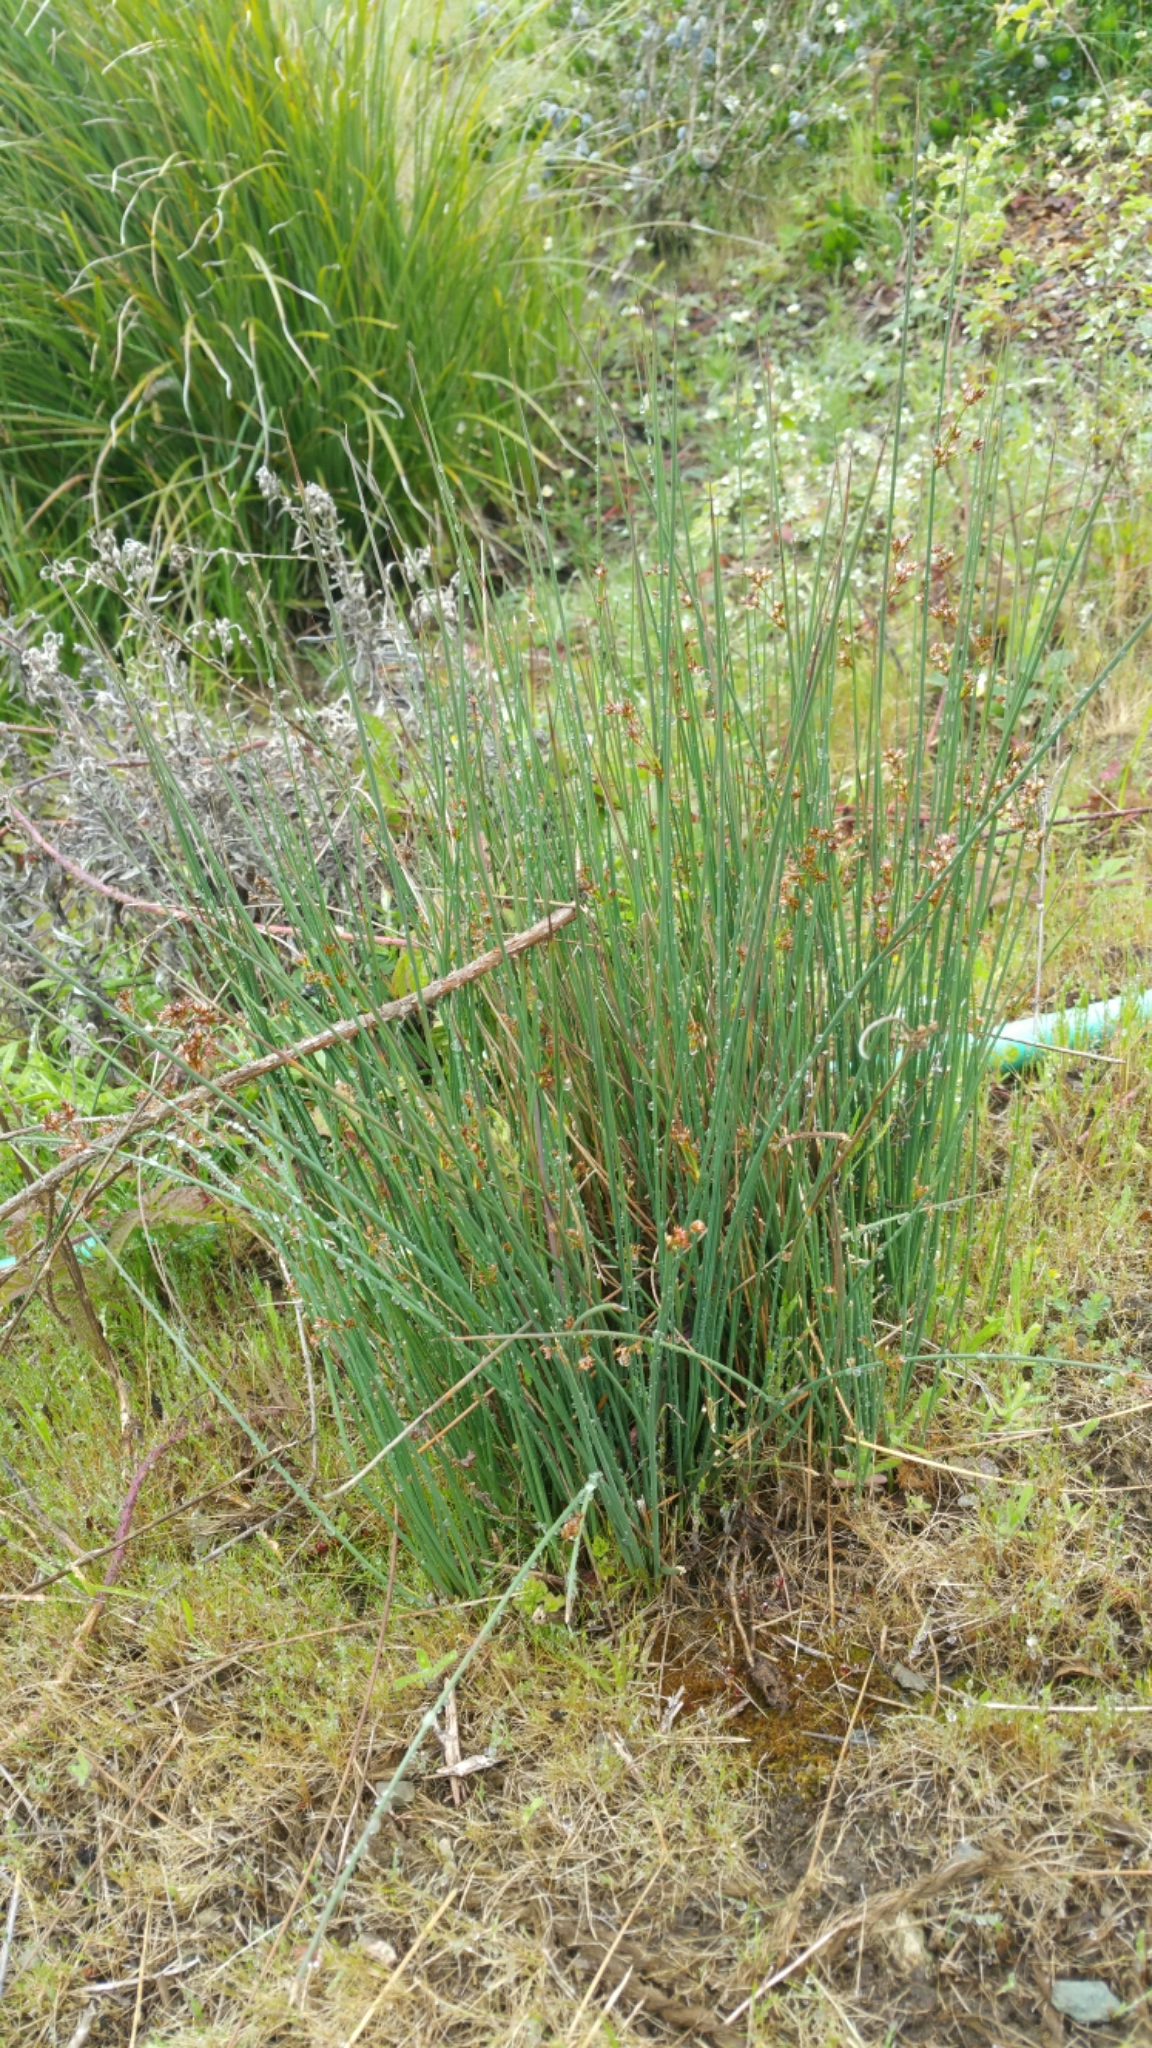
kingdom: Plantae
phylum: Tracheophyta
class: Liliopsida
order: Poales
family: Juncaceae
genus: Juncus
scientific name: Juncus patens
